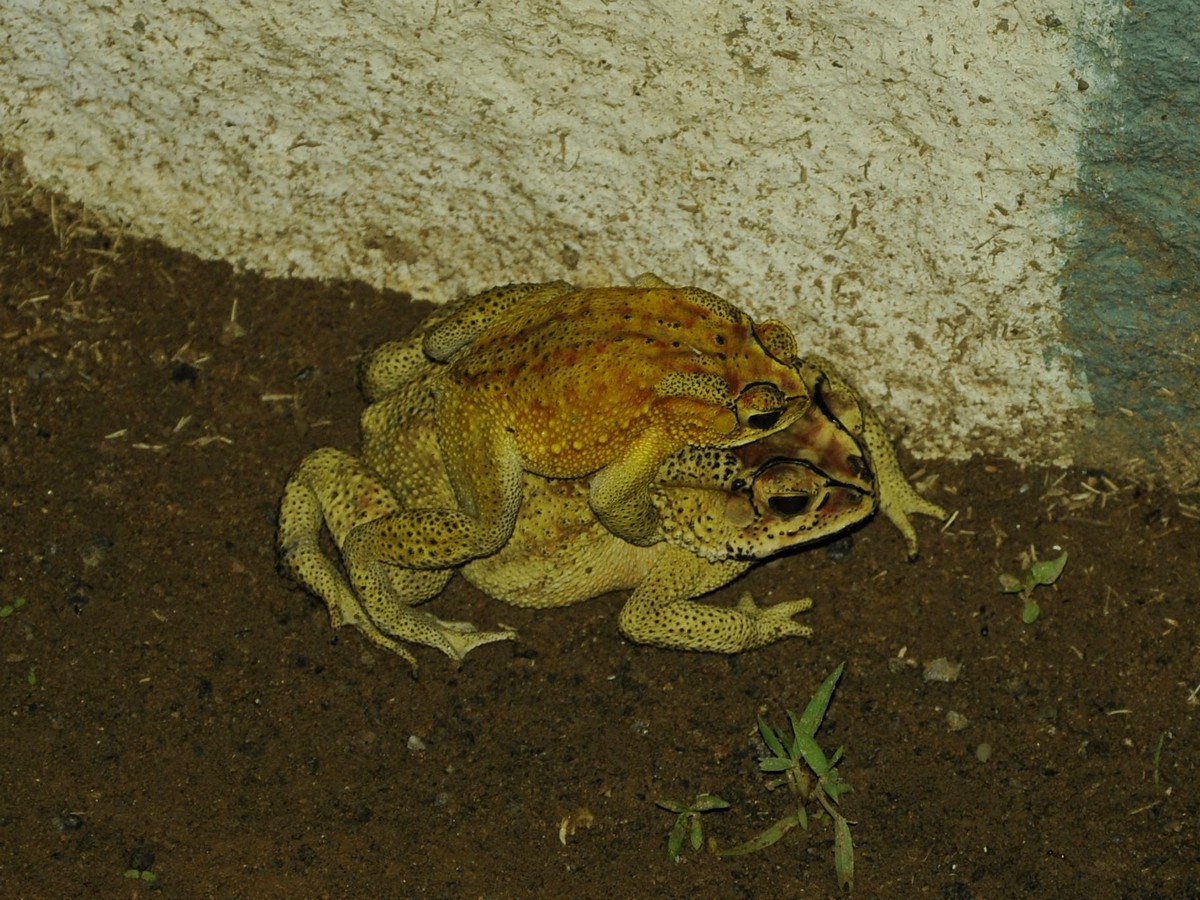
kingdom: Animalia
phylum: Chordata
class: Amphibia
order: Anura
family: Bufonidae
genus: Duttaphrynus
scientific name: Duttaphrynus melanostictus
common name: Common sunda toad
